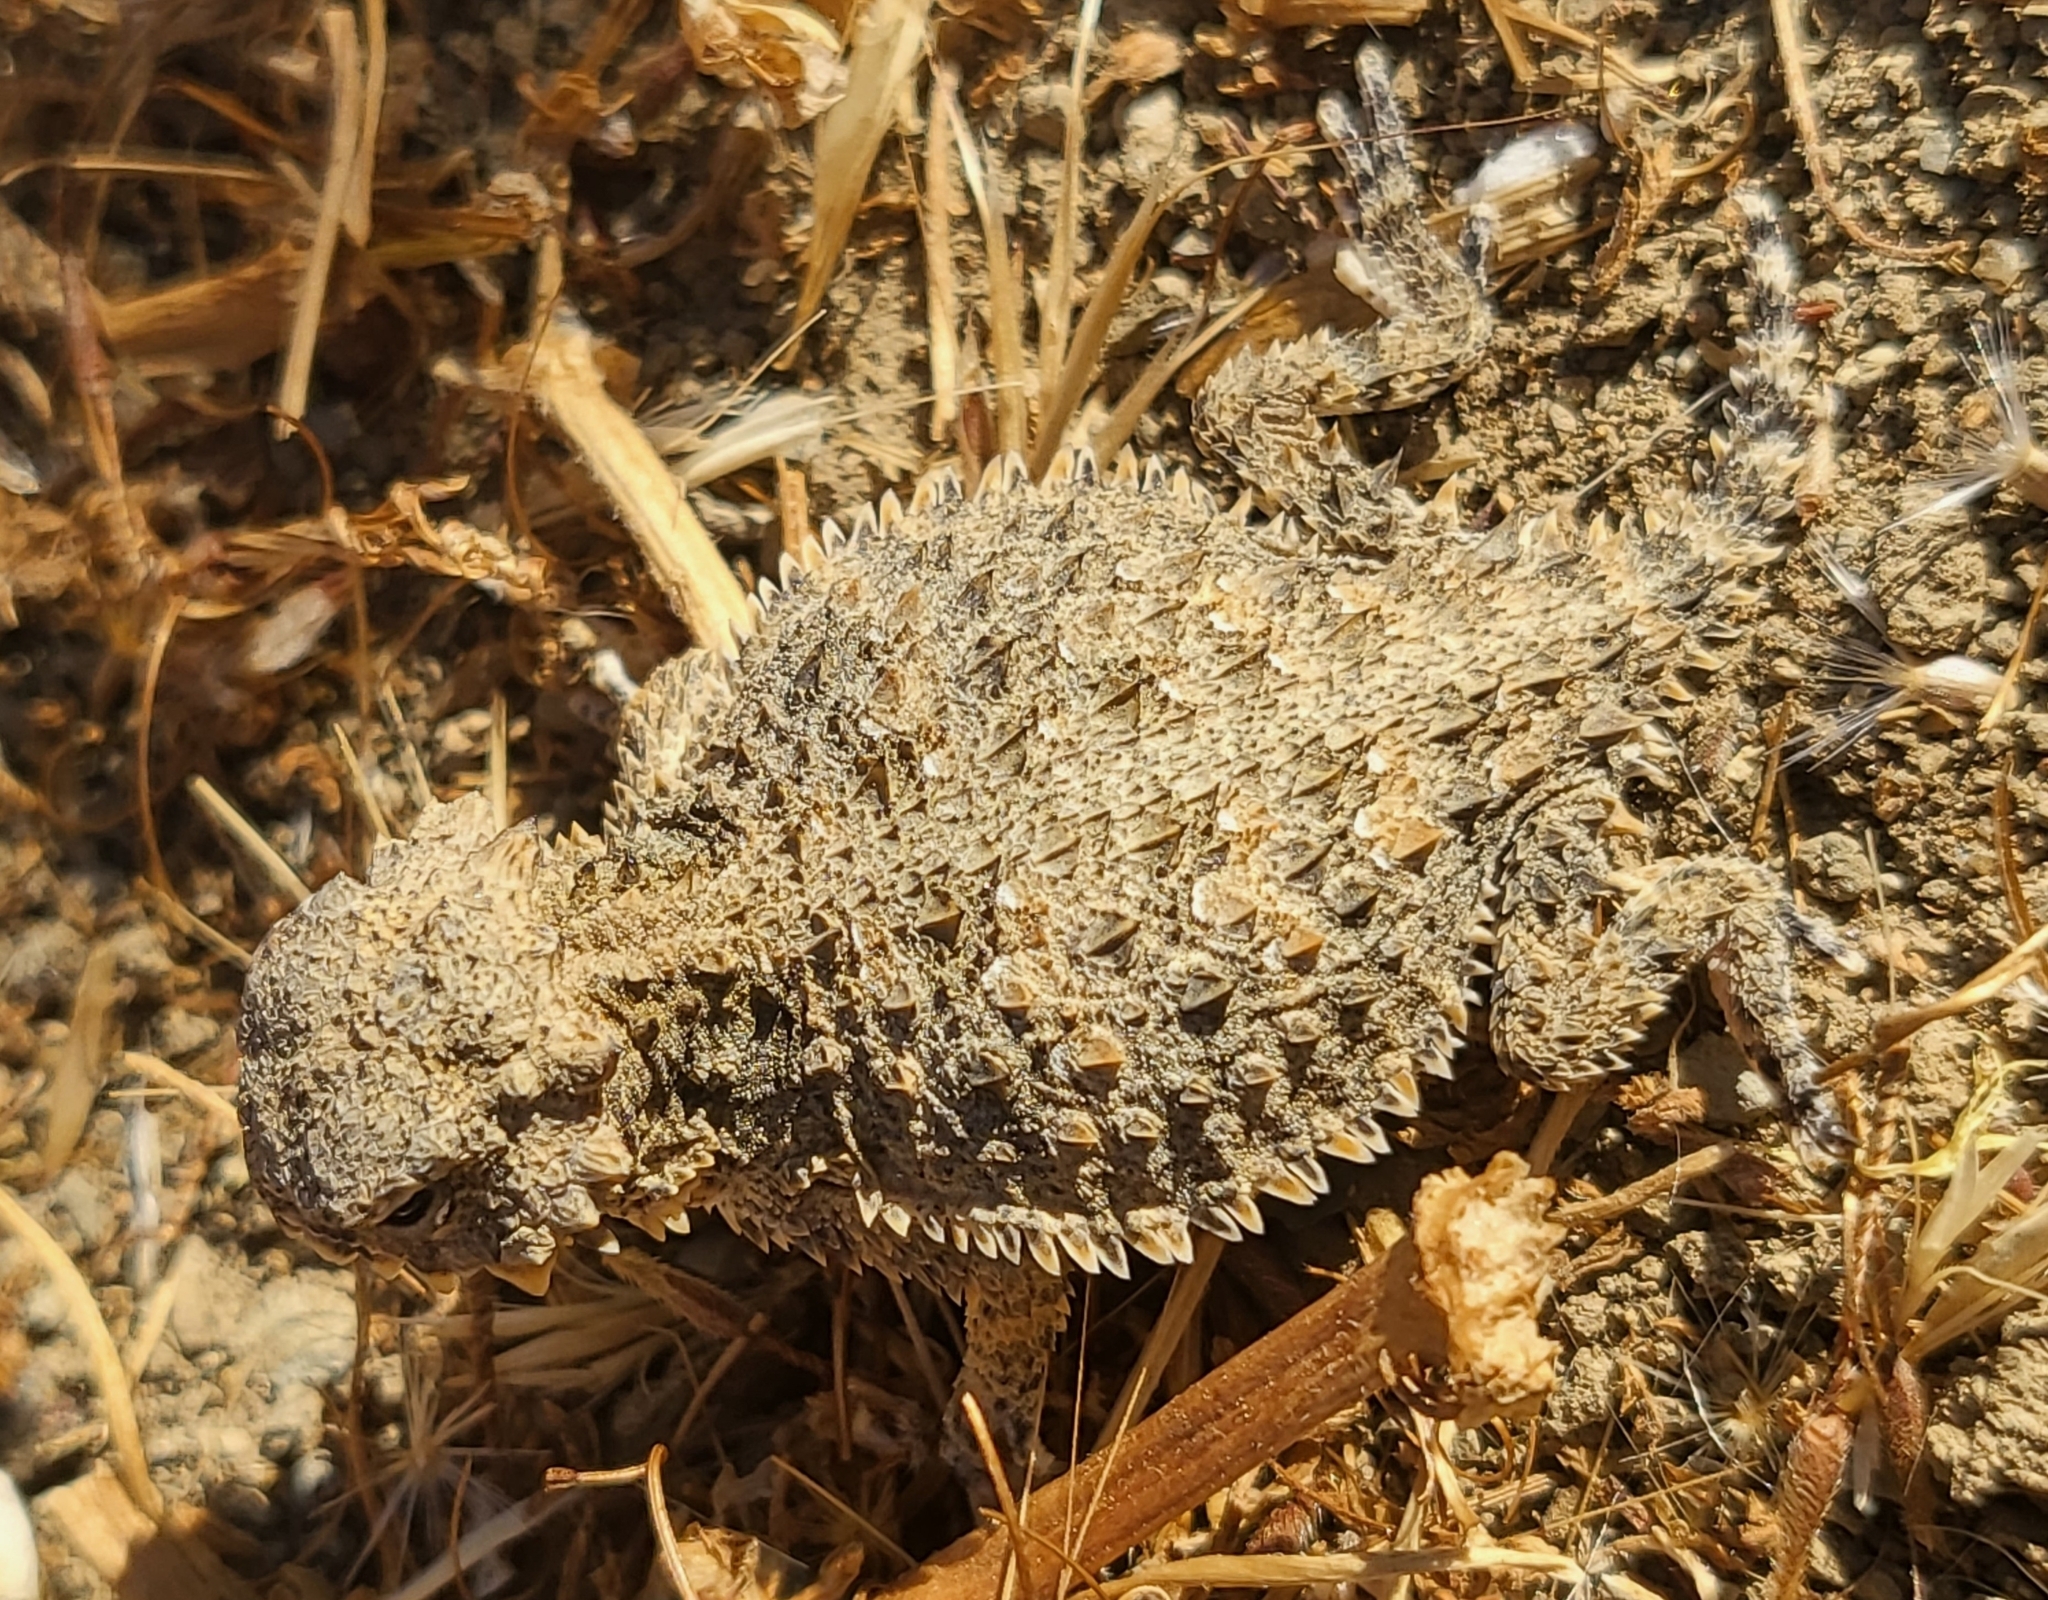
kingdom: Animalia
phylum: Chordata
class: Squamata
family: Phrynosomatidae
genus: Phrynosoma
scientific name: Phrynosoma blainvillii
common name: San diego horned lizard
